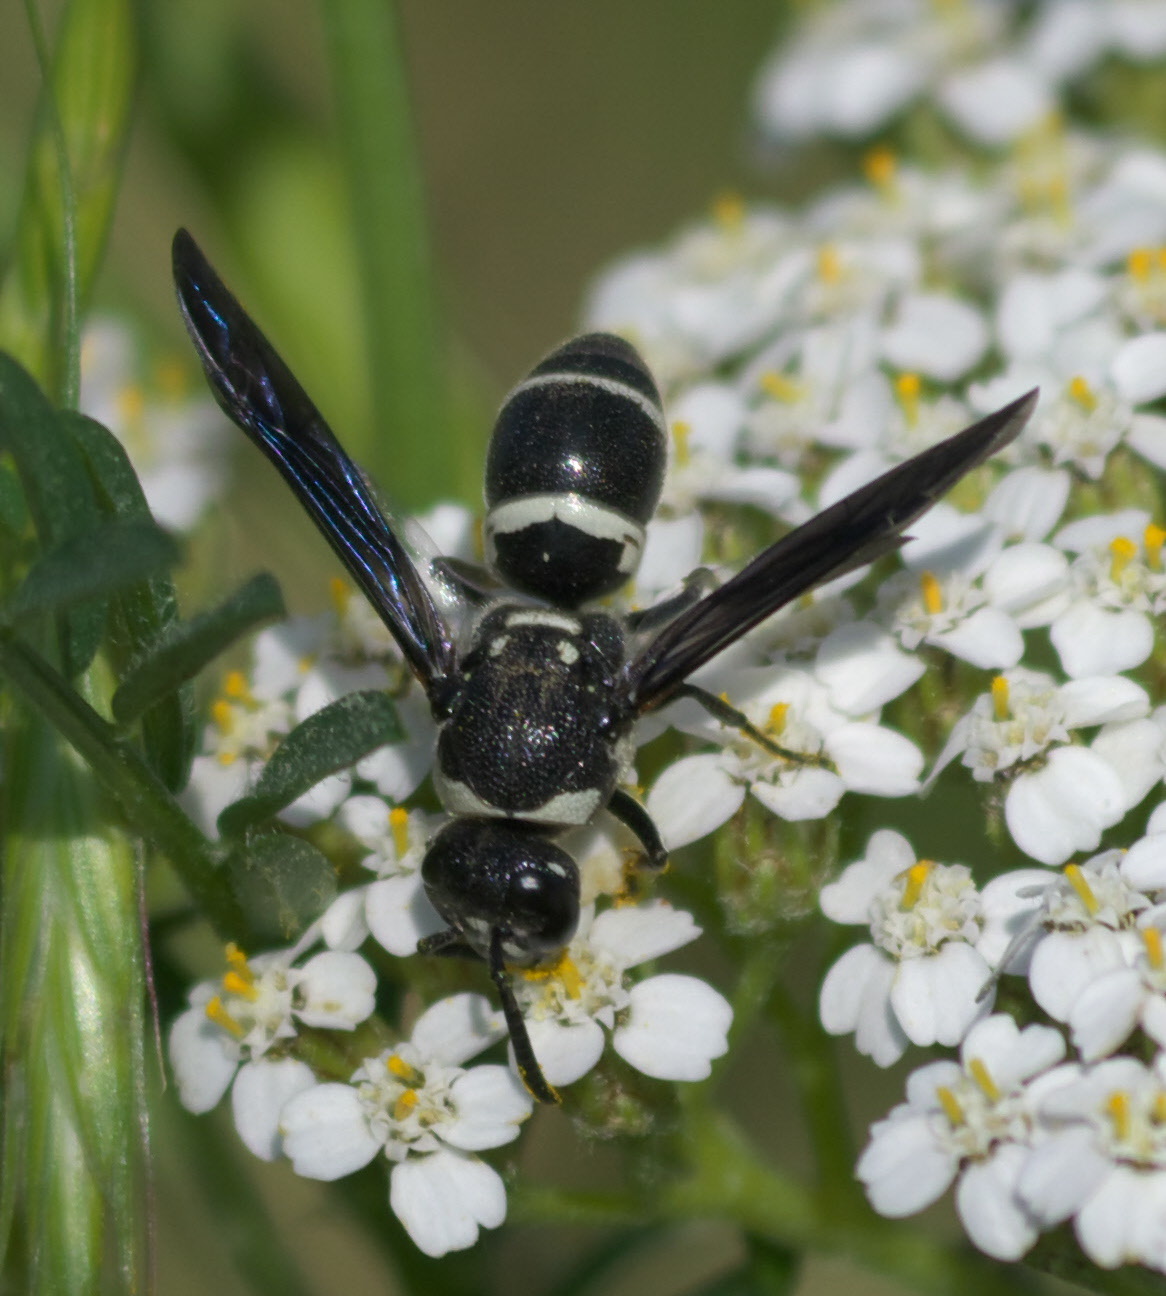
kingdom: Animalia
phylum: Arthropoda
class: Insecta
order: Hymenoptera
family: Eumenidae
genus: Euodynerus
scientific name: Euodynerus megaera
